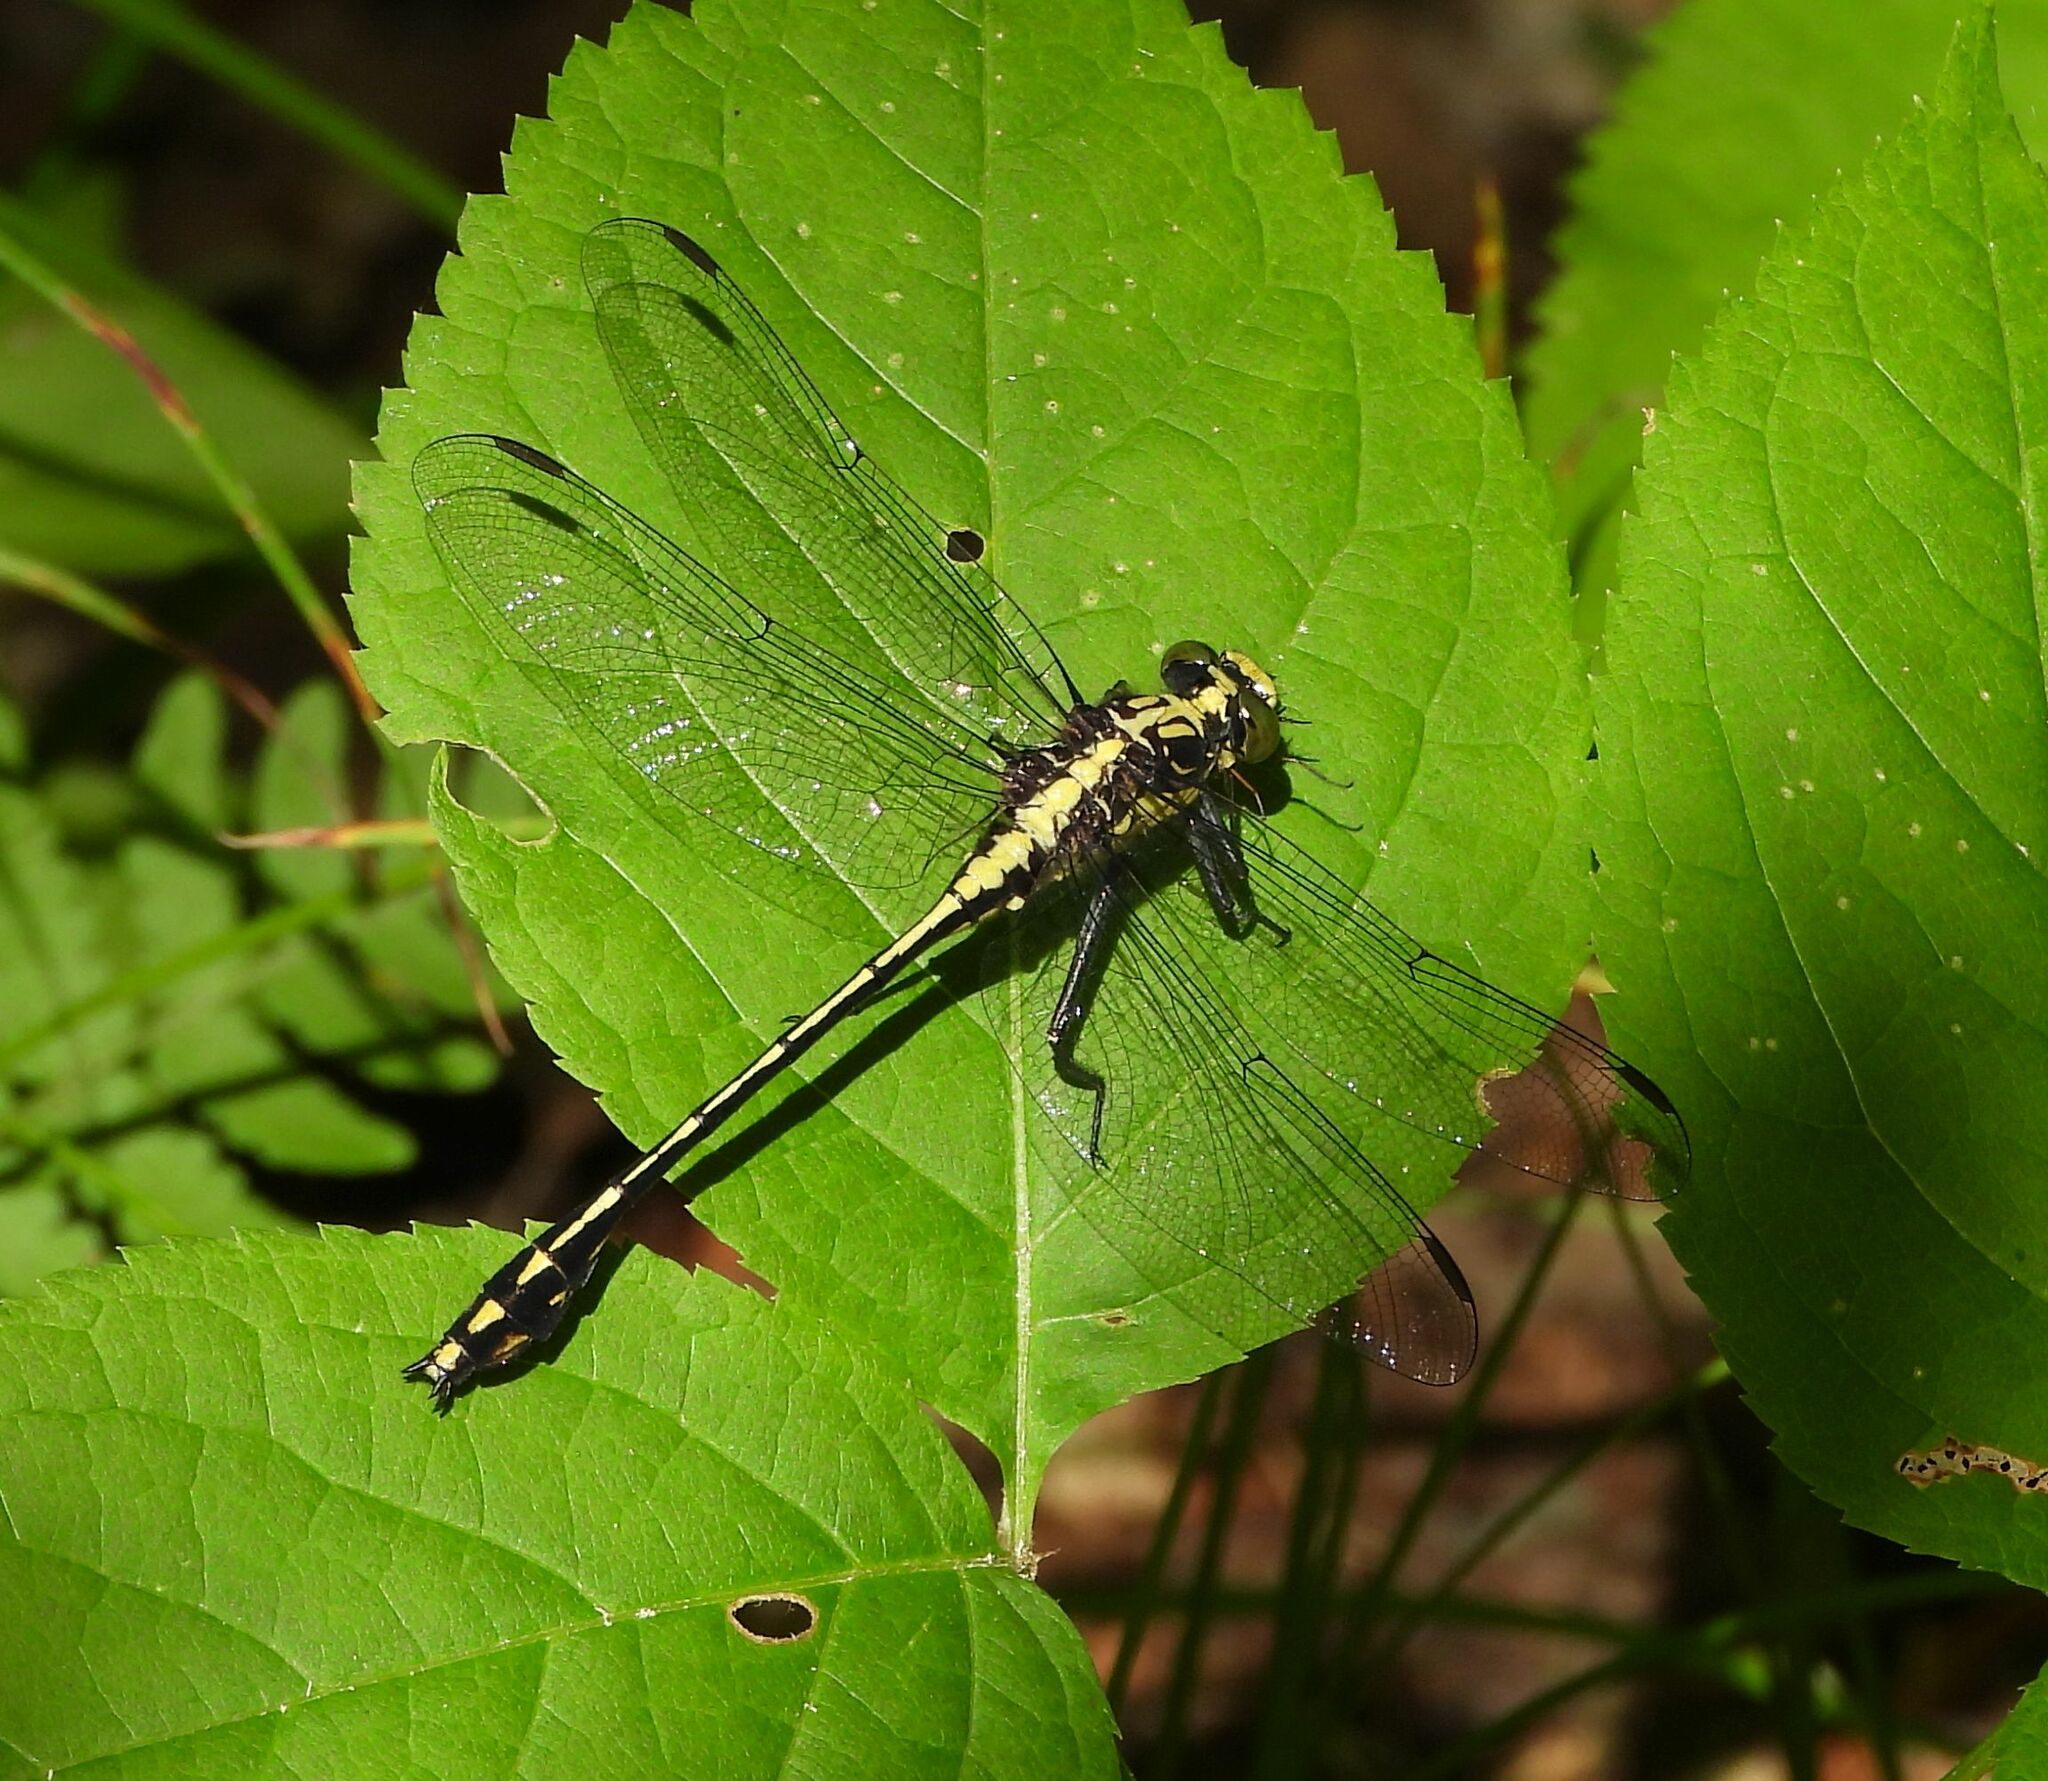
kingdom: Animalia
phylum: Arthropoda
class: Insecta
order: Odonata
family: Gomphidae
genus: Dromogomphus
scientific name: Dromogomphus spinosus
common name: Black-shouldered spinyleg
